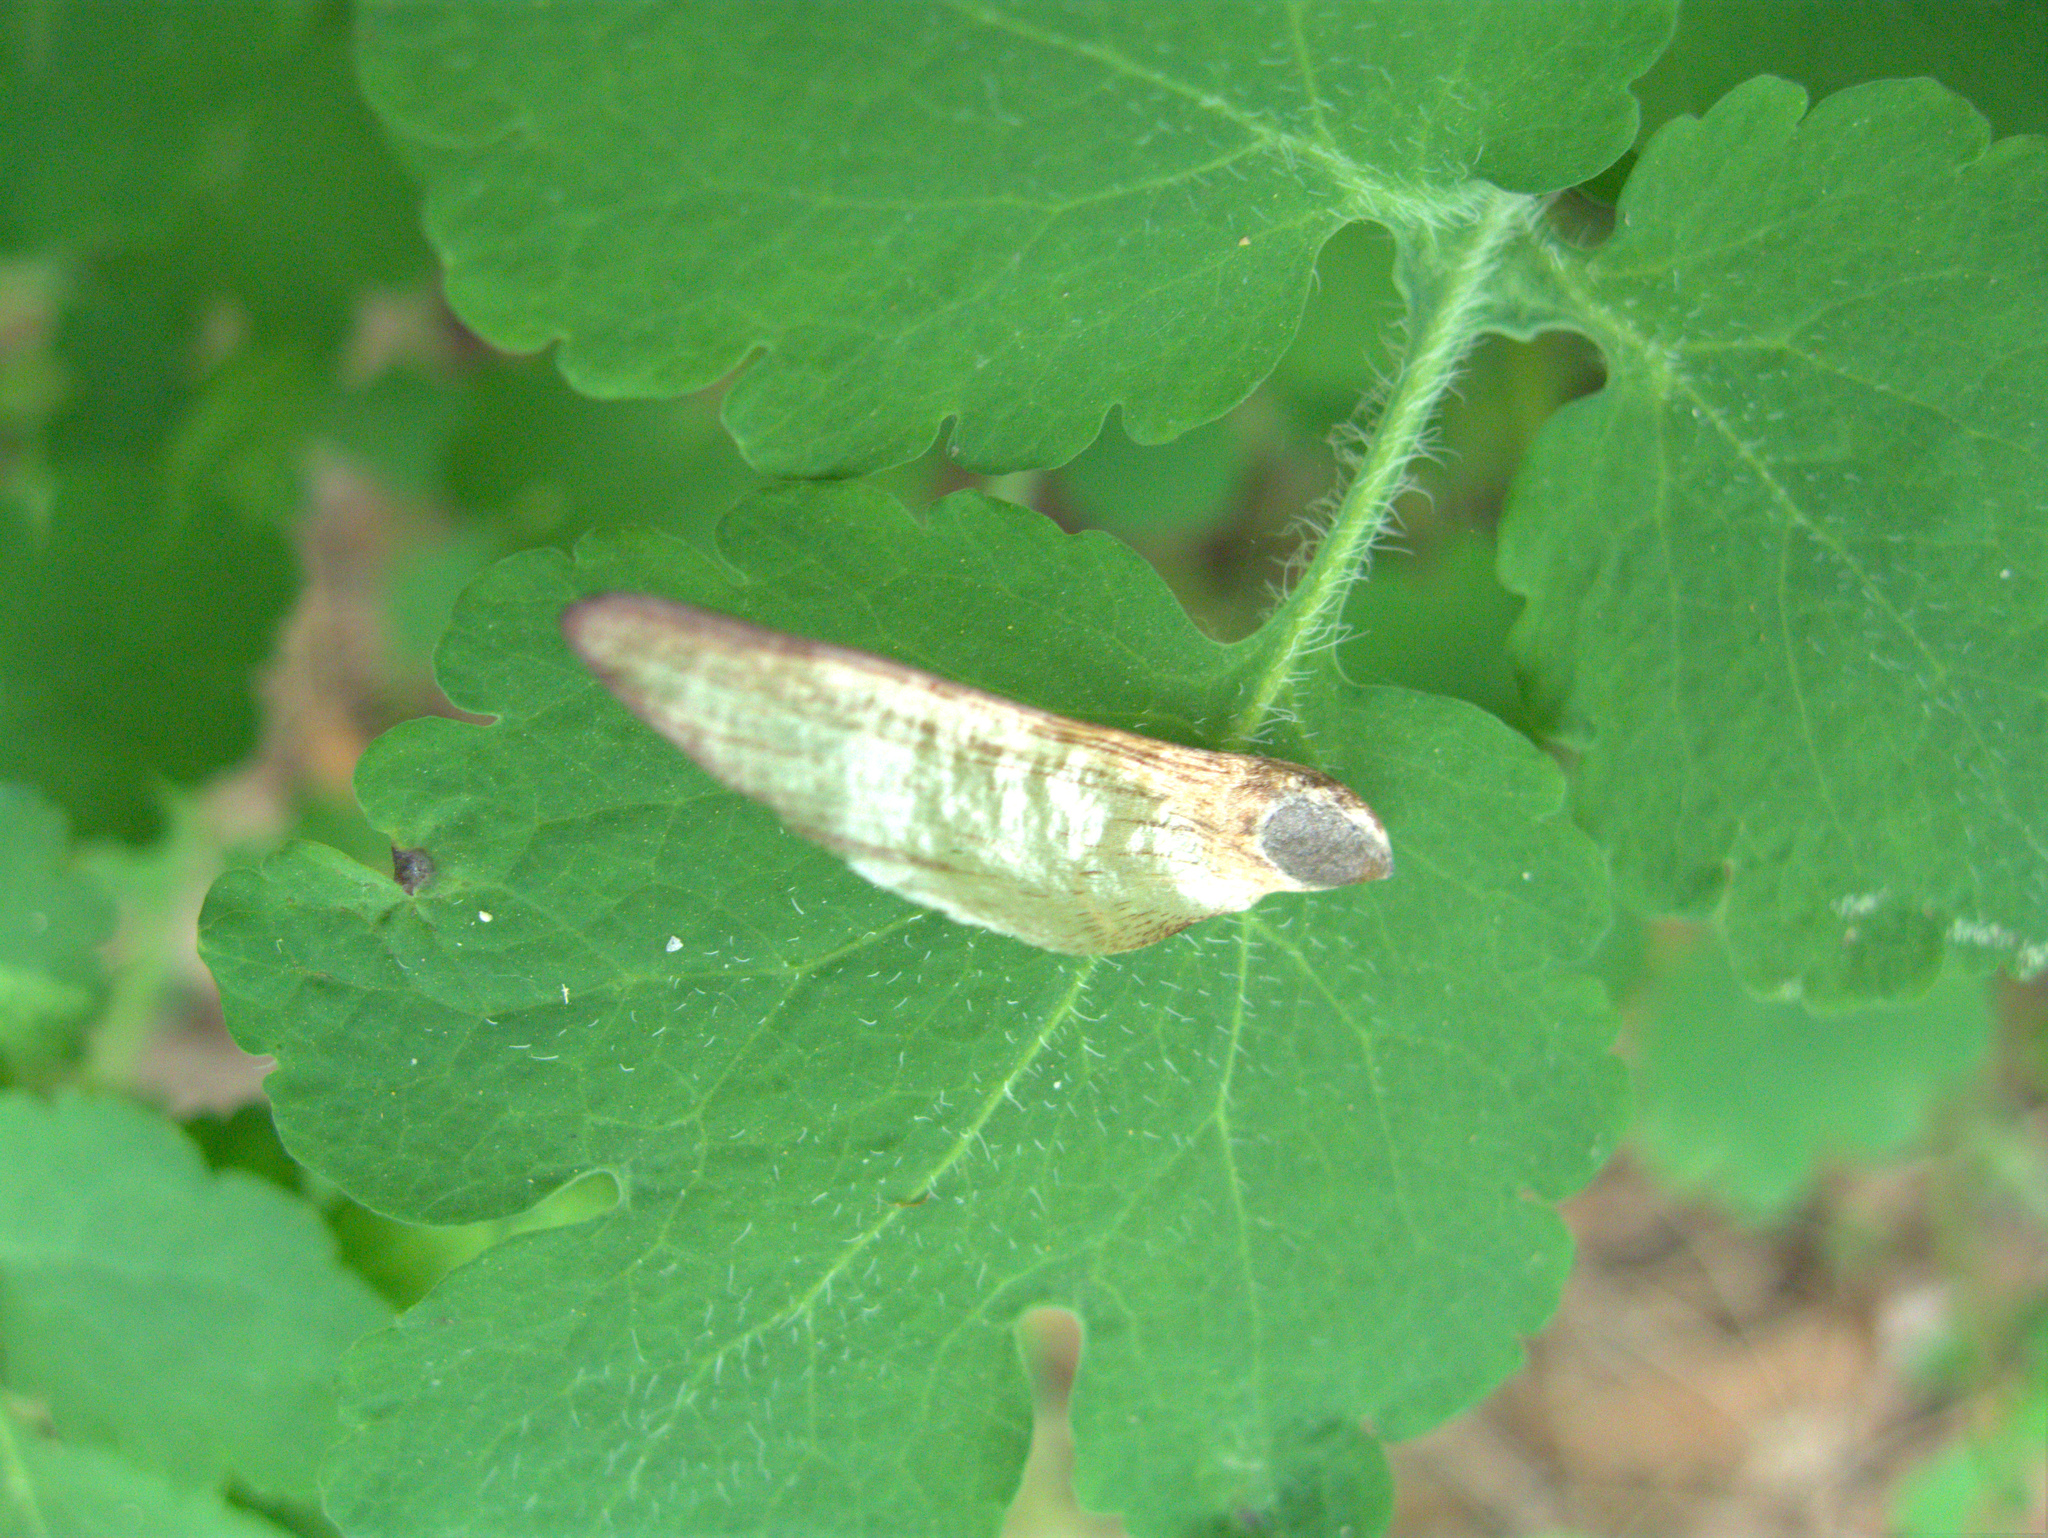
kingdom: Plantae
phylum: Tracheophyta
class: Pinopsida
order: Pinales
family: Pinaceae
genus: Pinus
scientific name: Pinus sylvestris
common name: Scots pine
